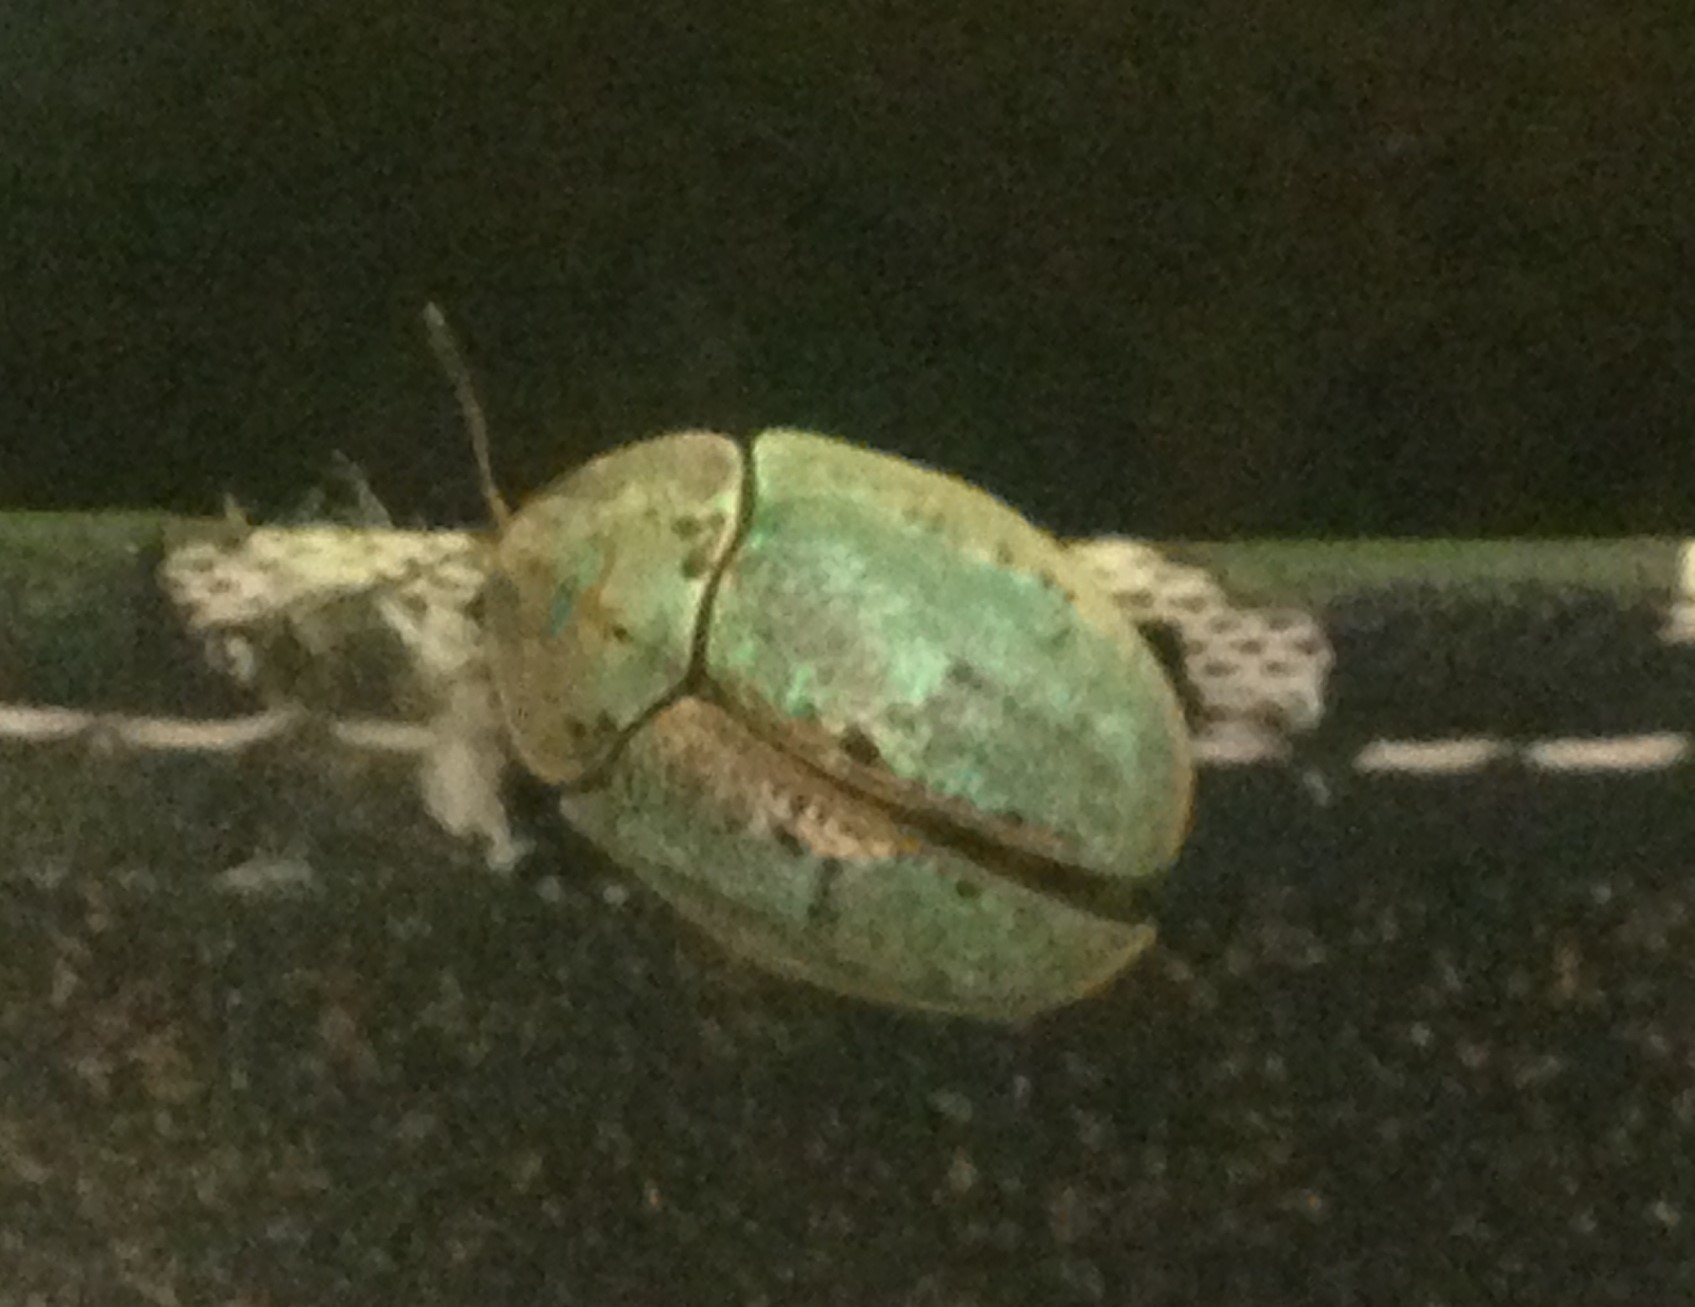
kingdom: Animalia
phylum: Arthropoda
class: Insecta
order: Coleoptera
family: Chrysomelidae
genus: Physonota
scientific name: Physonota alutacea
